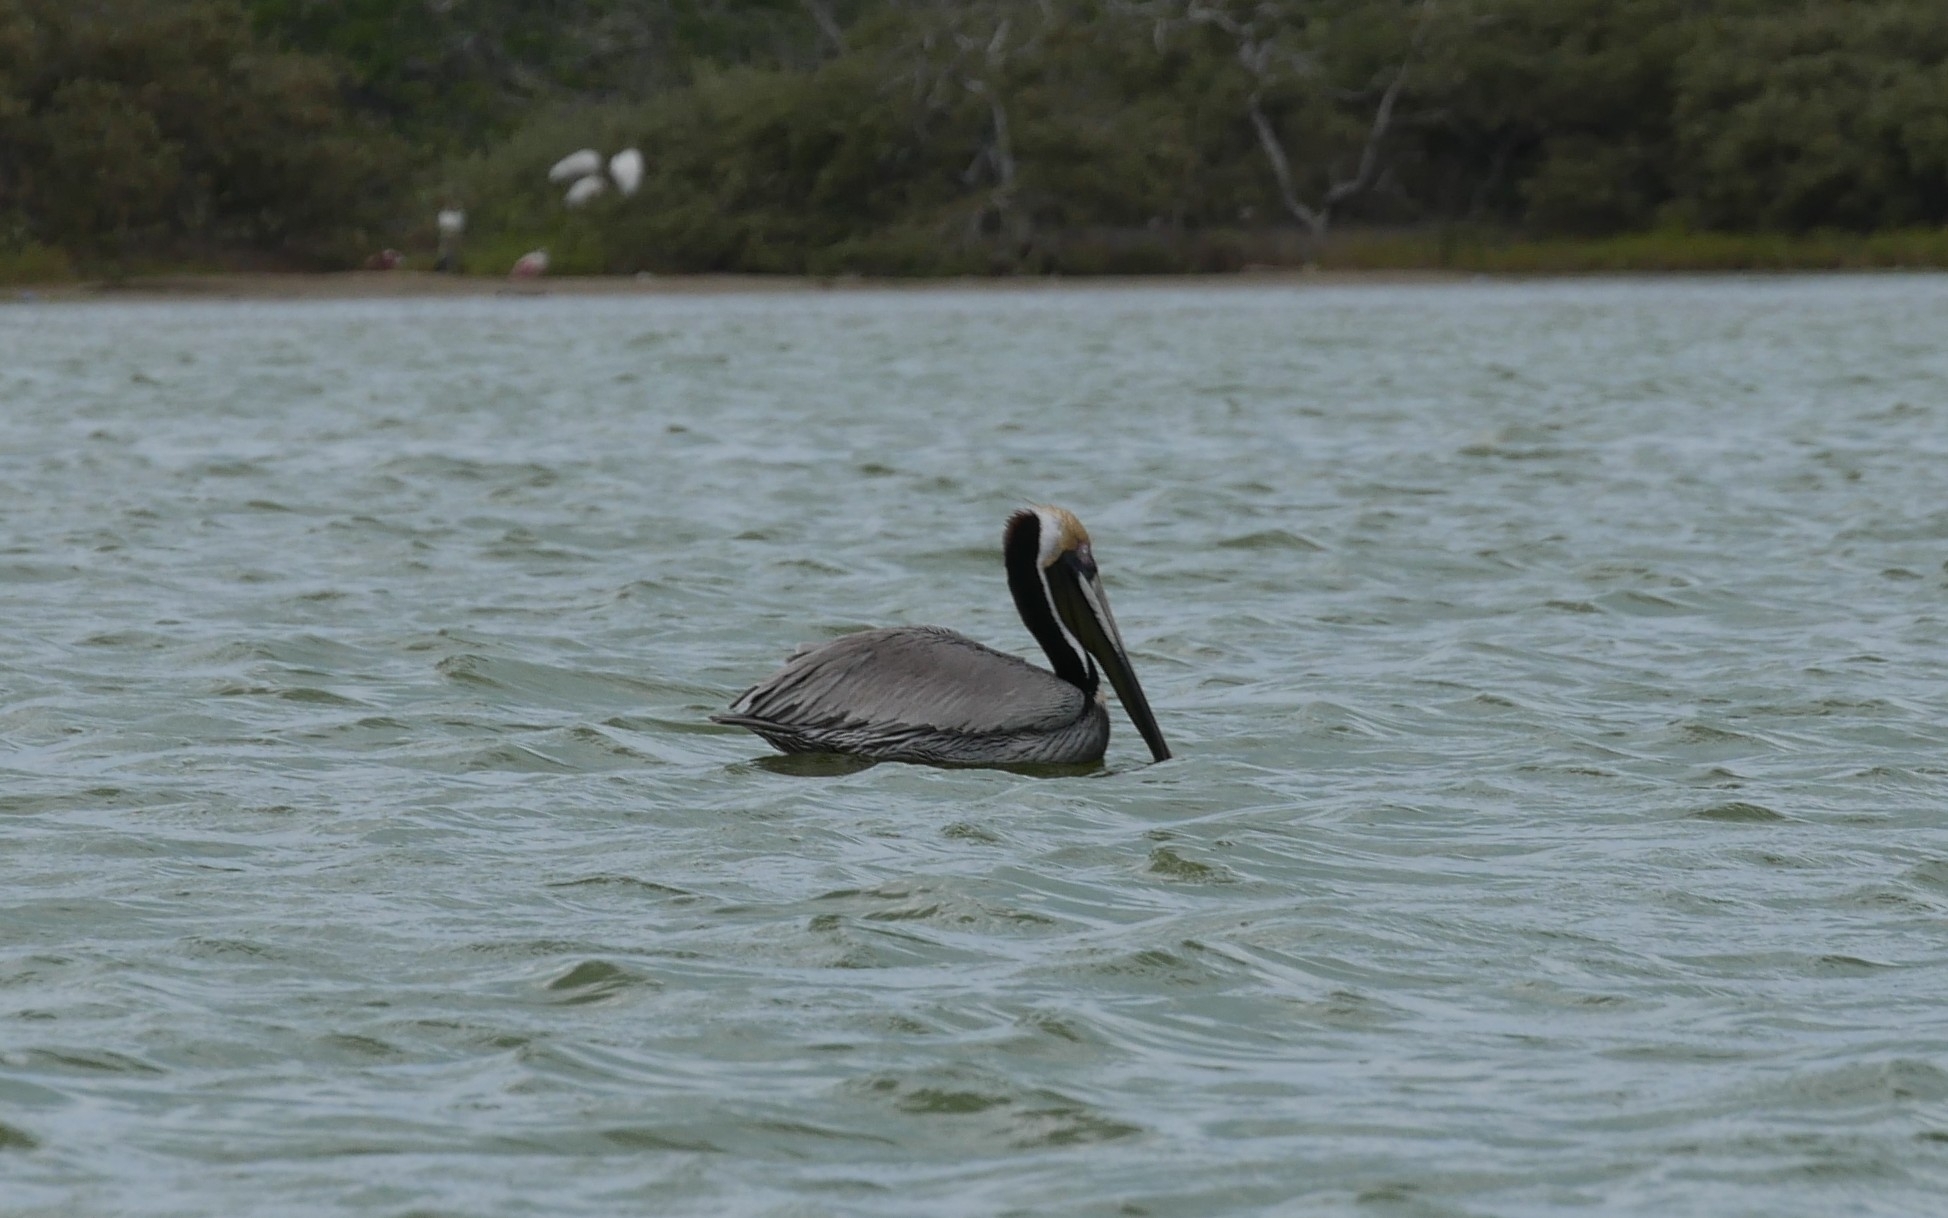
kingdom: Animalia
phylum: Chordata
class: Aves
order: Pelecaniformes
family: Pelecanidae
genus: Pelecanus
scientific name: Pelecanus occidentalis
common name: Brown pelican
